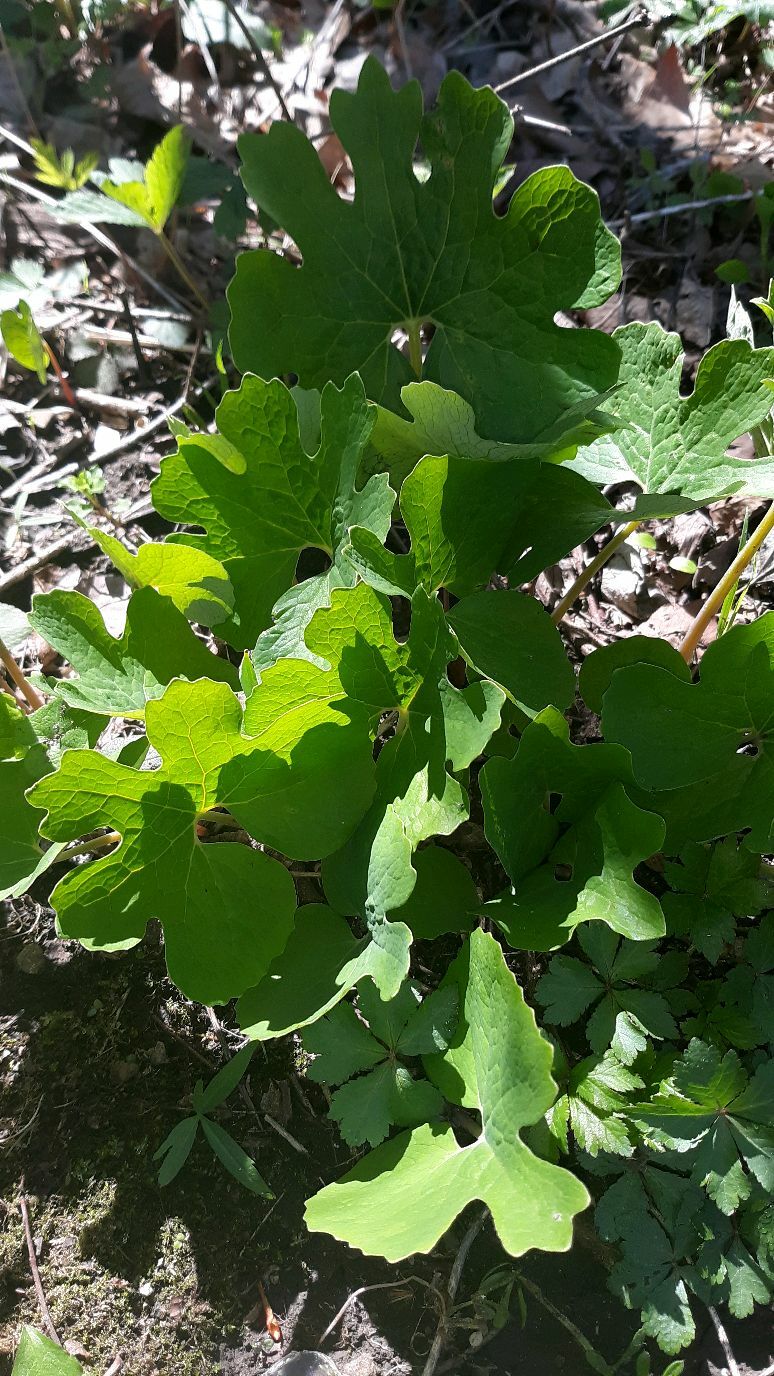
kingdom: Plantae
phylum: Tracheophyta
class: Magnoliopsida
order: Ranunculales
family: Papaveraceae
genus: Sanguinaria
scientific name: Sanguinaria canadensis
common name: Bloodroot
